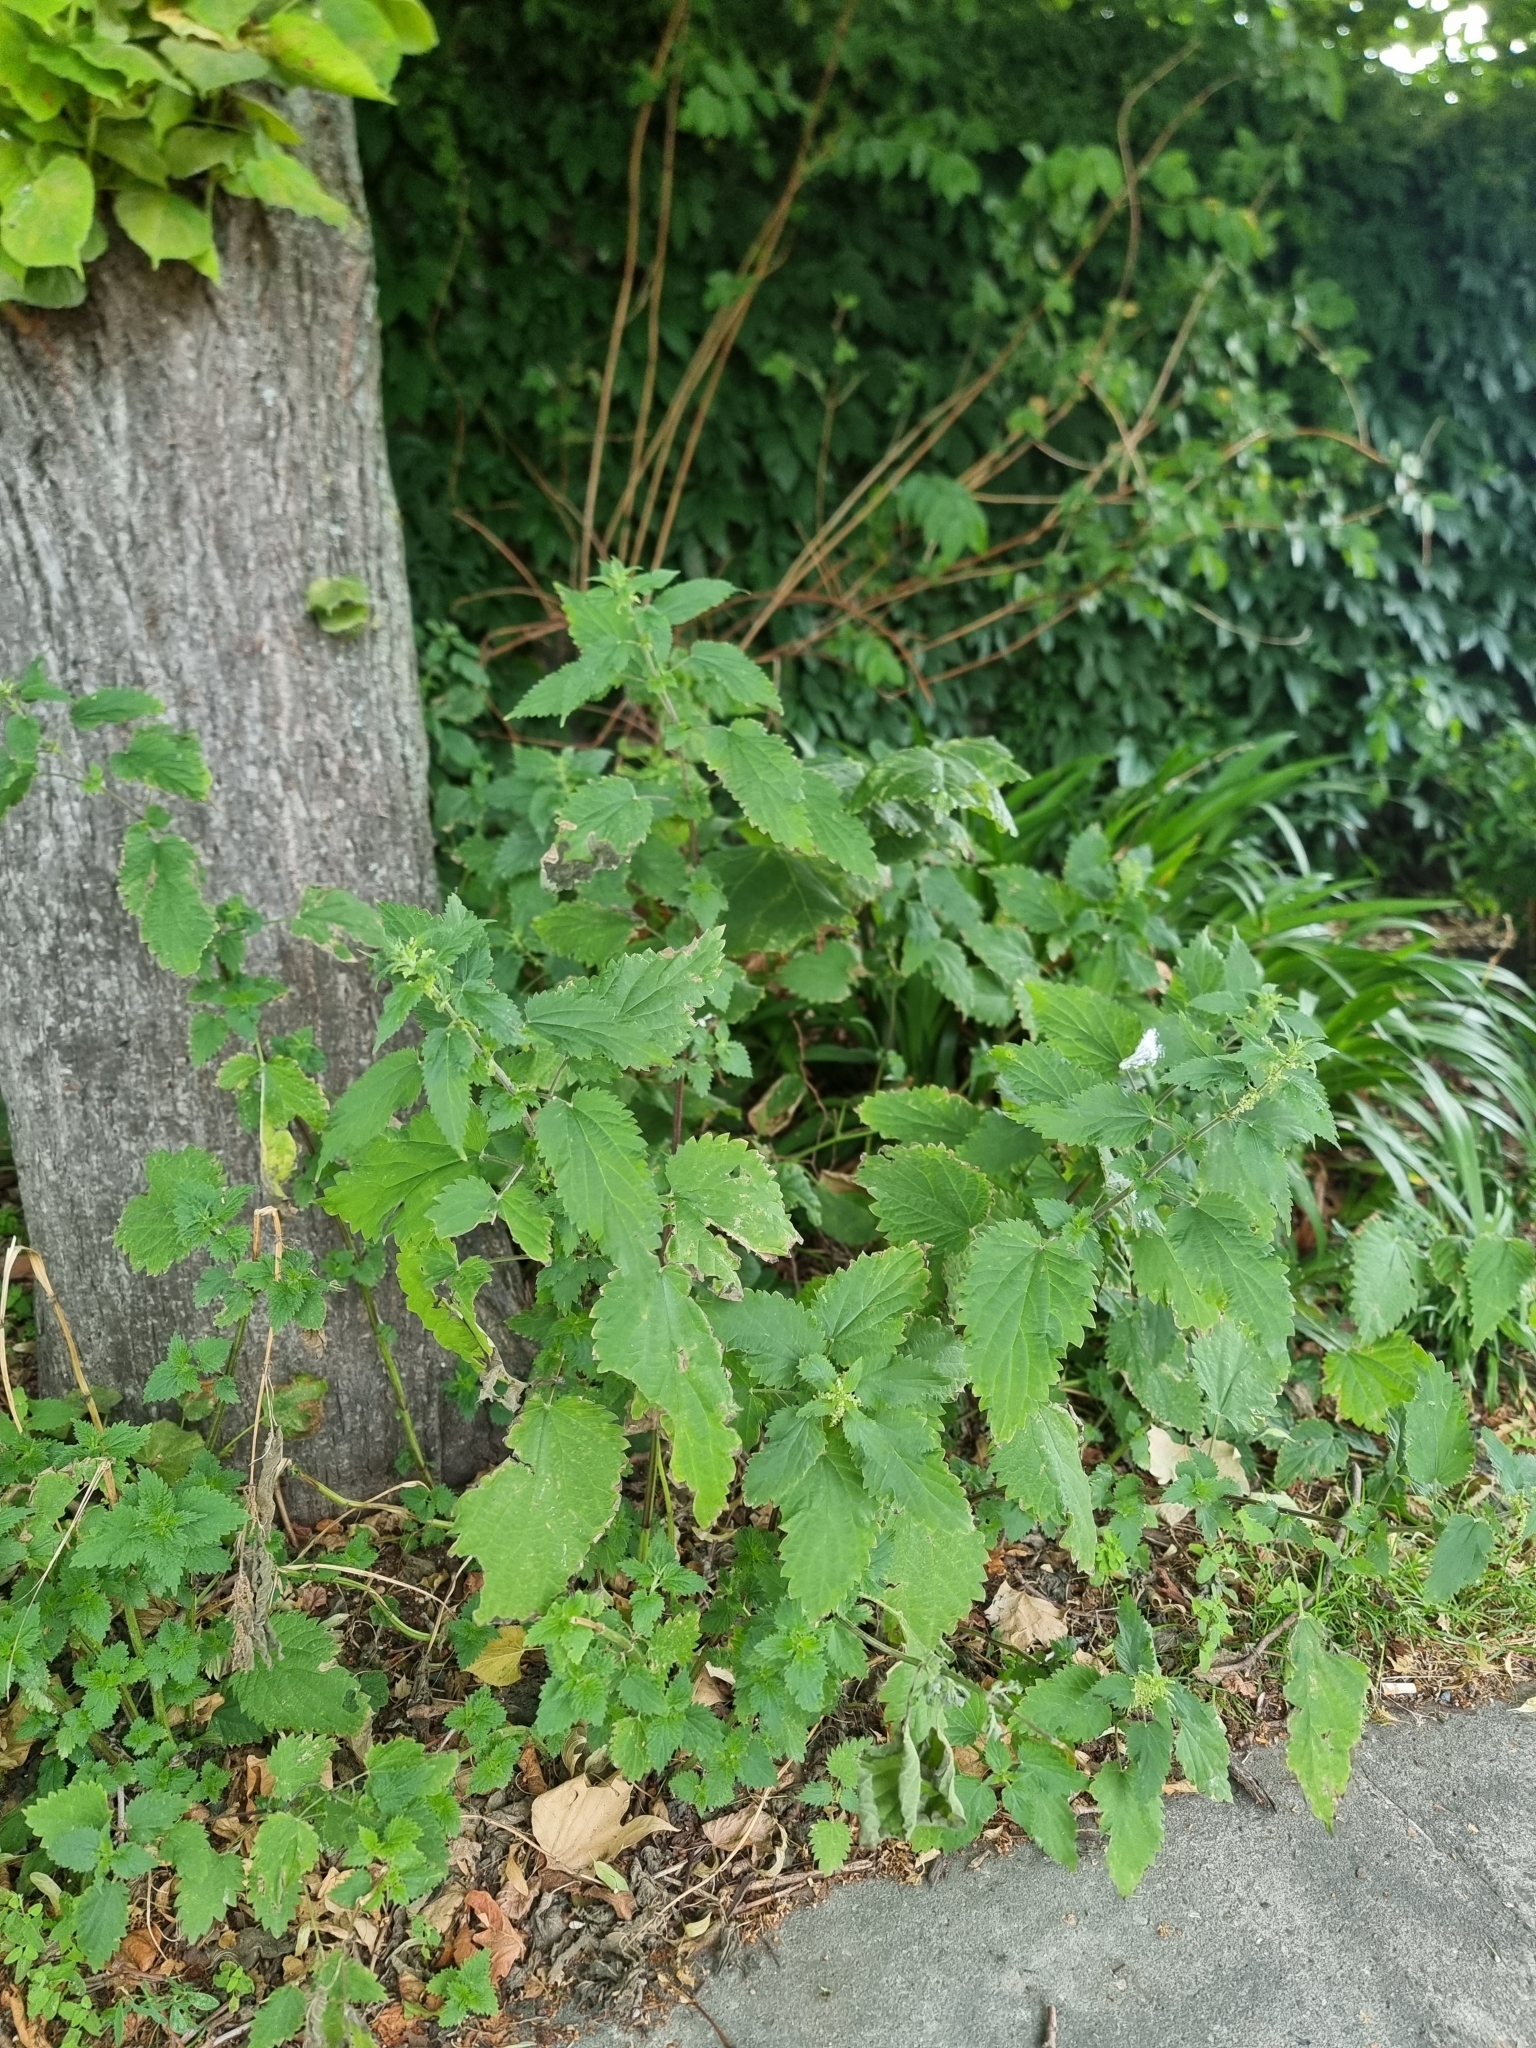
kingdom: Plantae
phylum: Tracheophyta
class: Magnoliopsida
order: Rosales
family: Urticaceae
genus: Urtica
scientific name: Urtica dioica
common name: Common nettle
